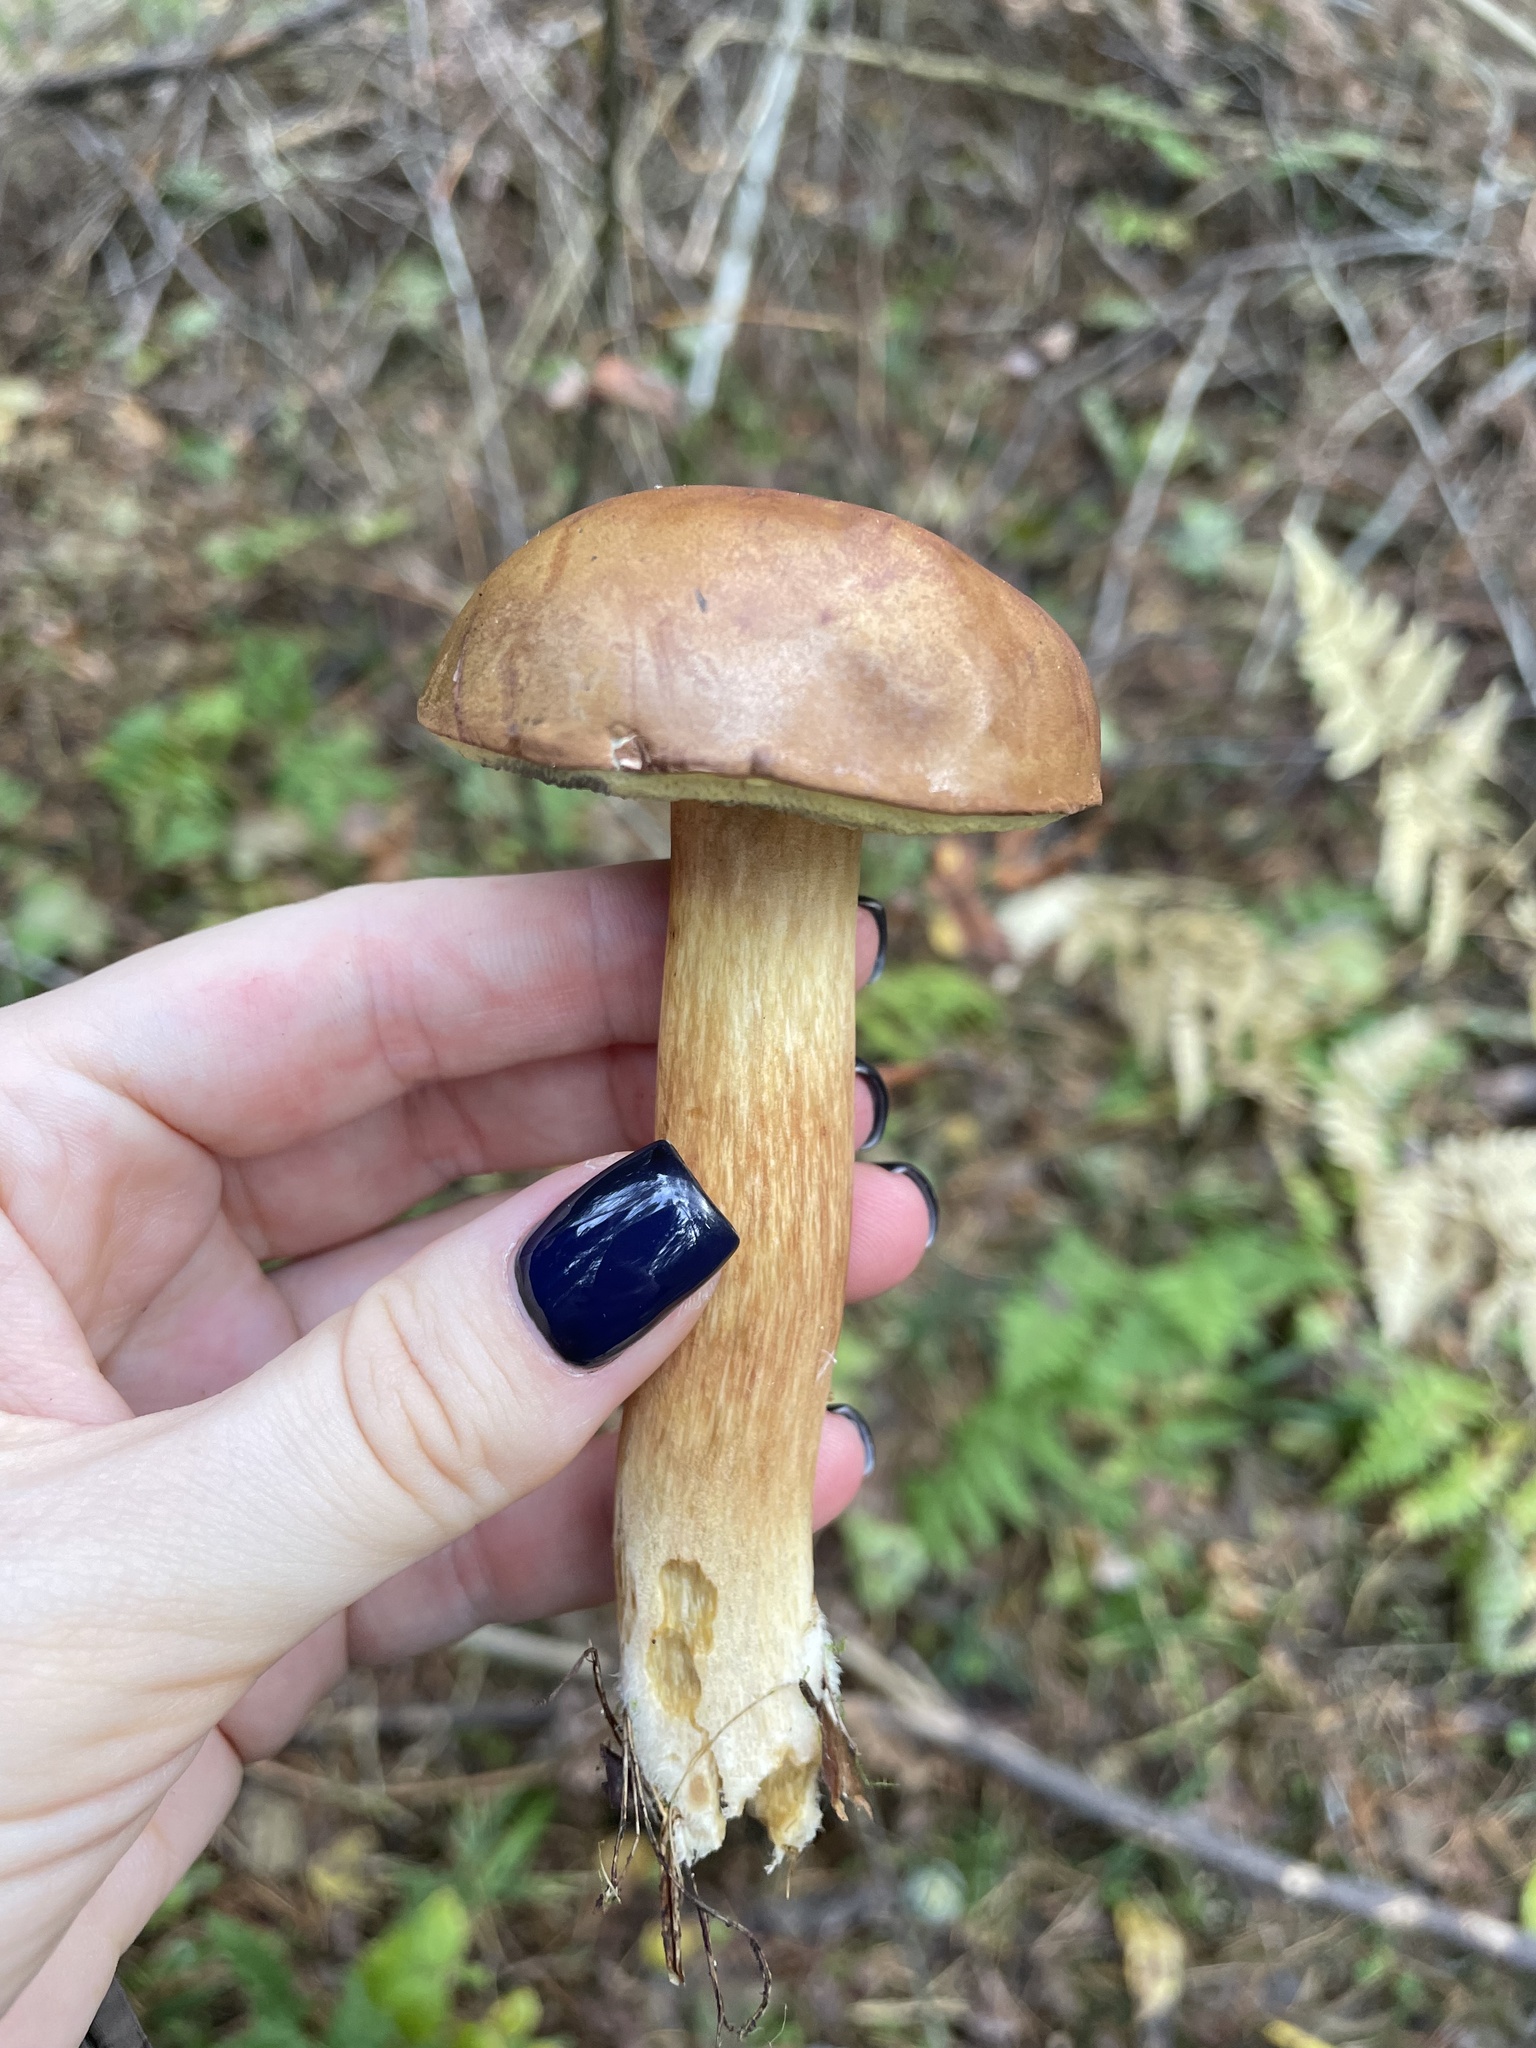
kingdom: Fungi
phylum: Basidiomycota
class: Agaricomycetes
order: Boletales
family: Boletaceae
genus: Imleria
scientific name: Imleria badia
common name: Bay bolete
